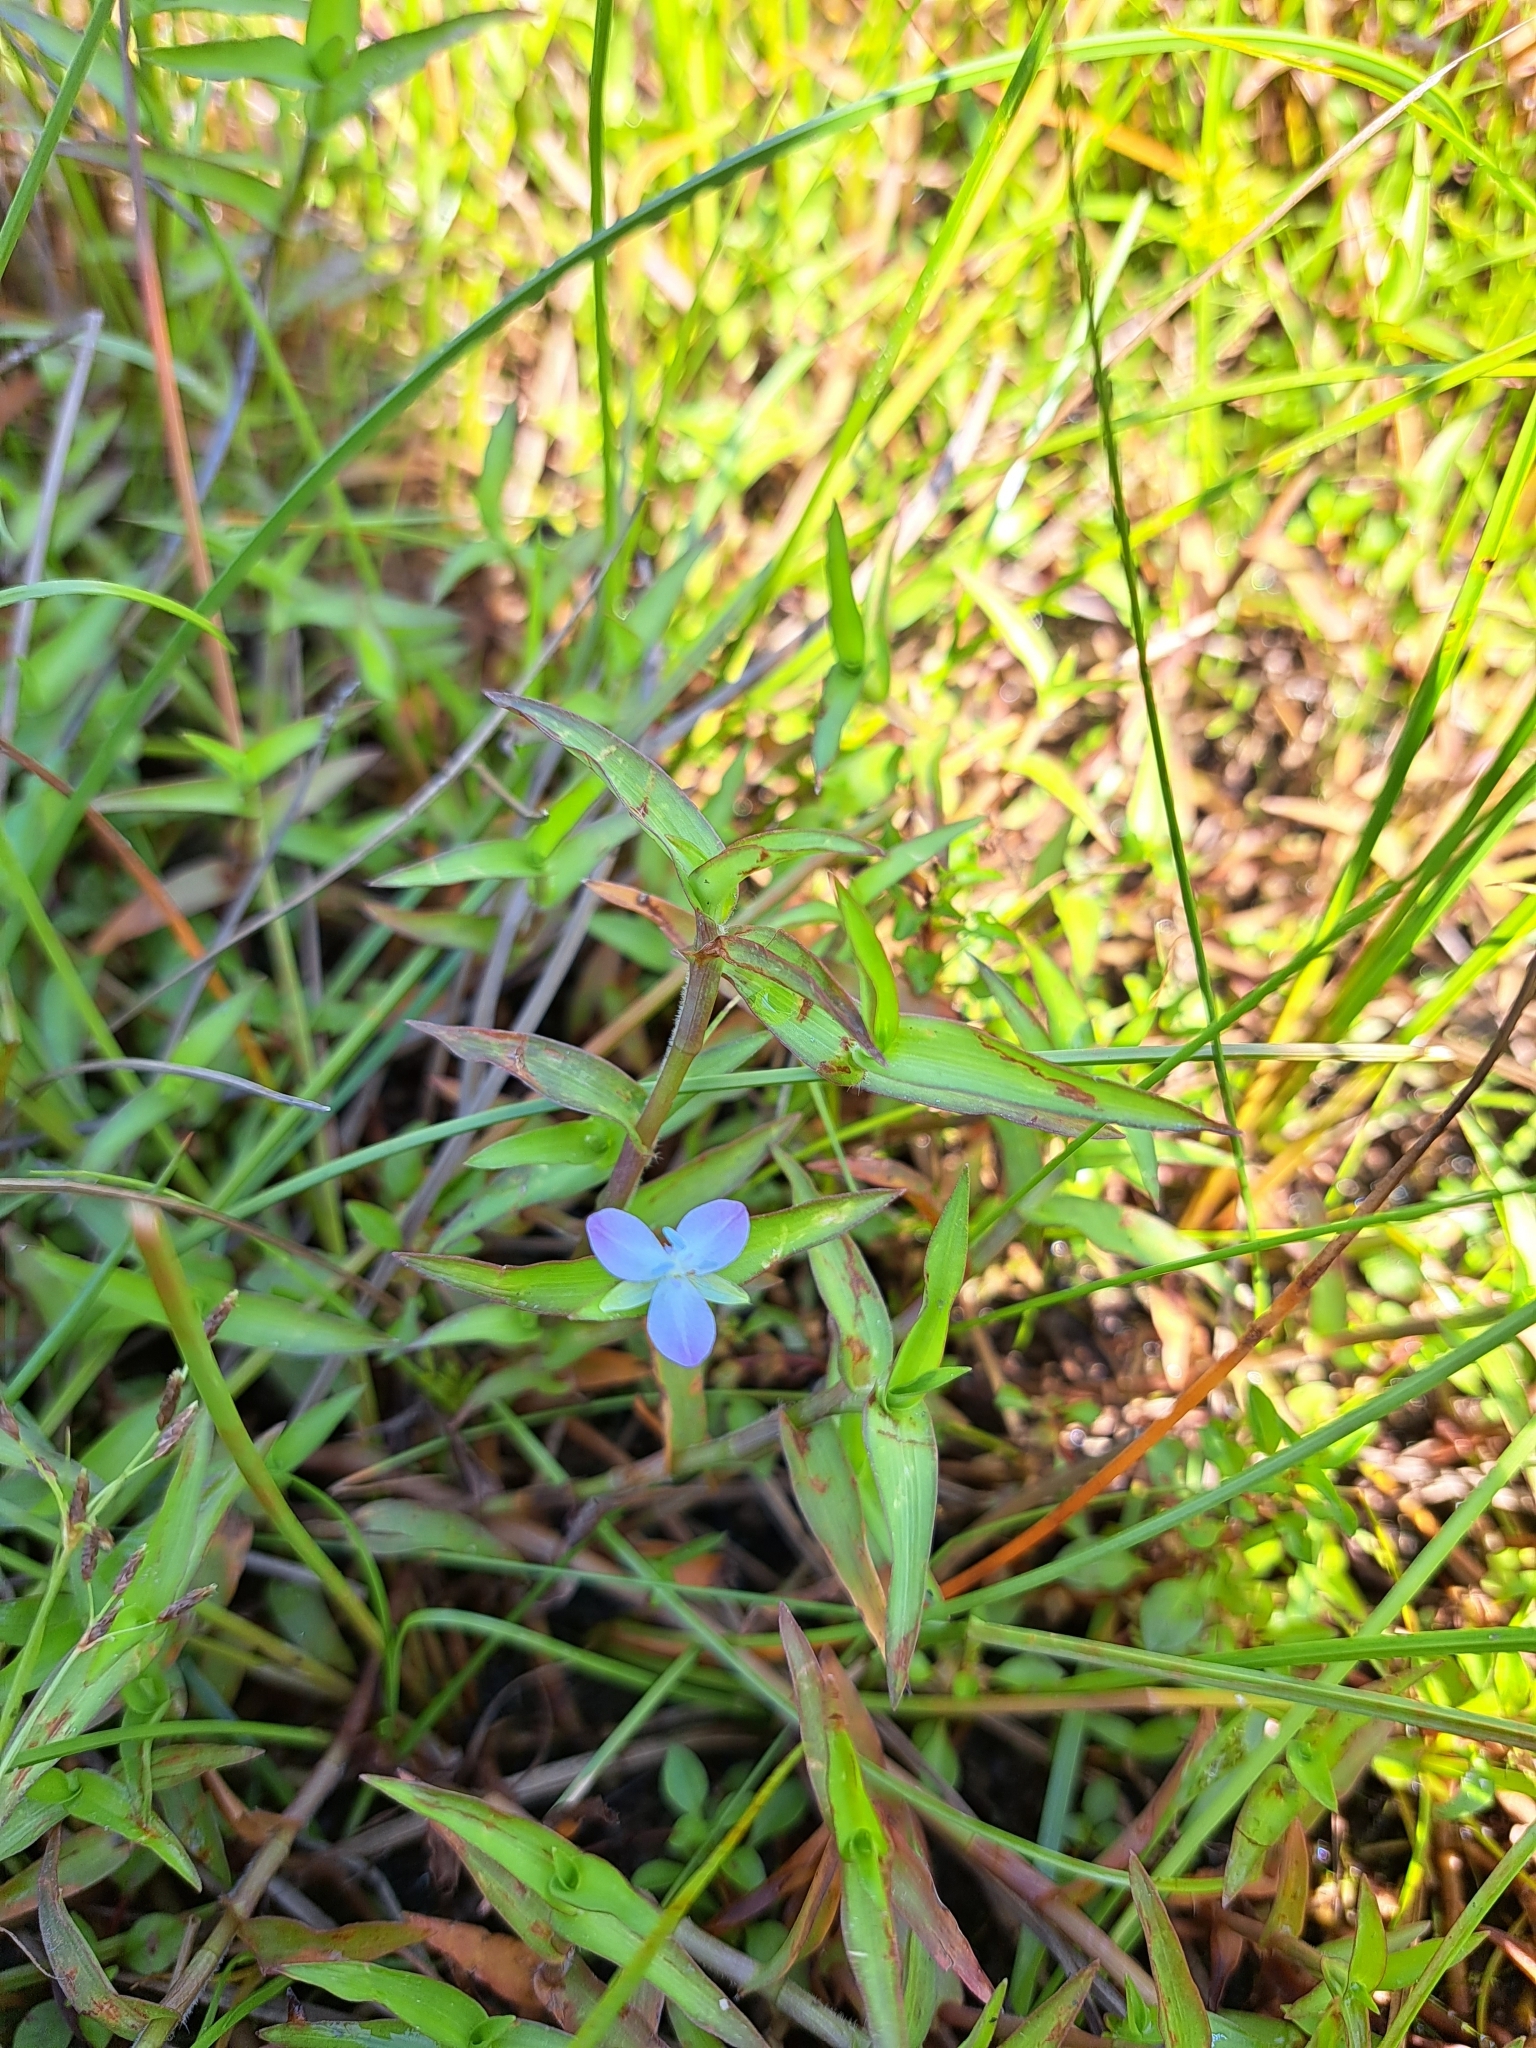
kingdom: Plantae
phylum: Tracheophyta
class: Liliopsida
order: Commelinales
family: Commelinaceae
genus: Murdannia
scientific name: Murdannia keisak
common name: Wartremoving herb
